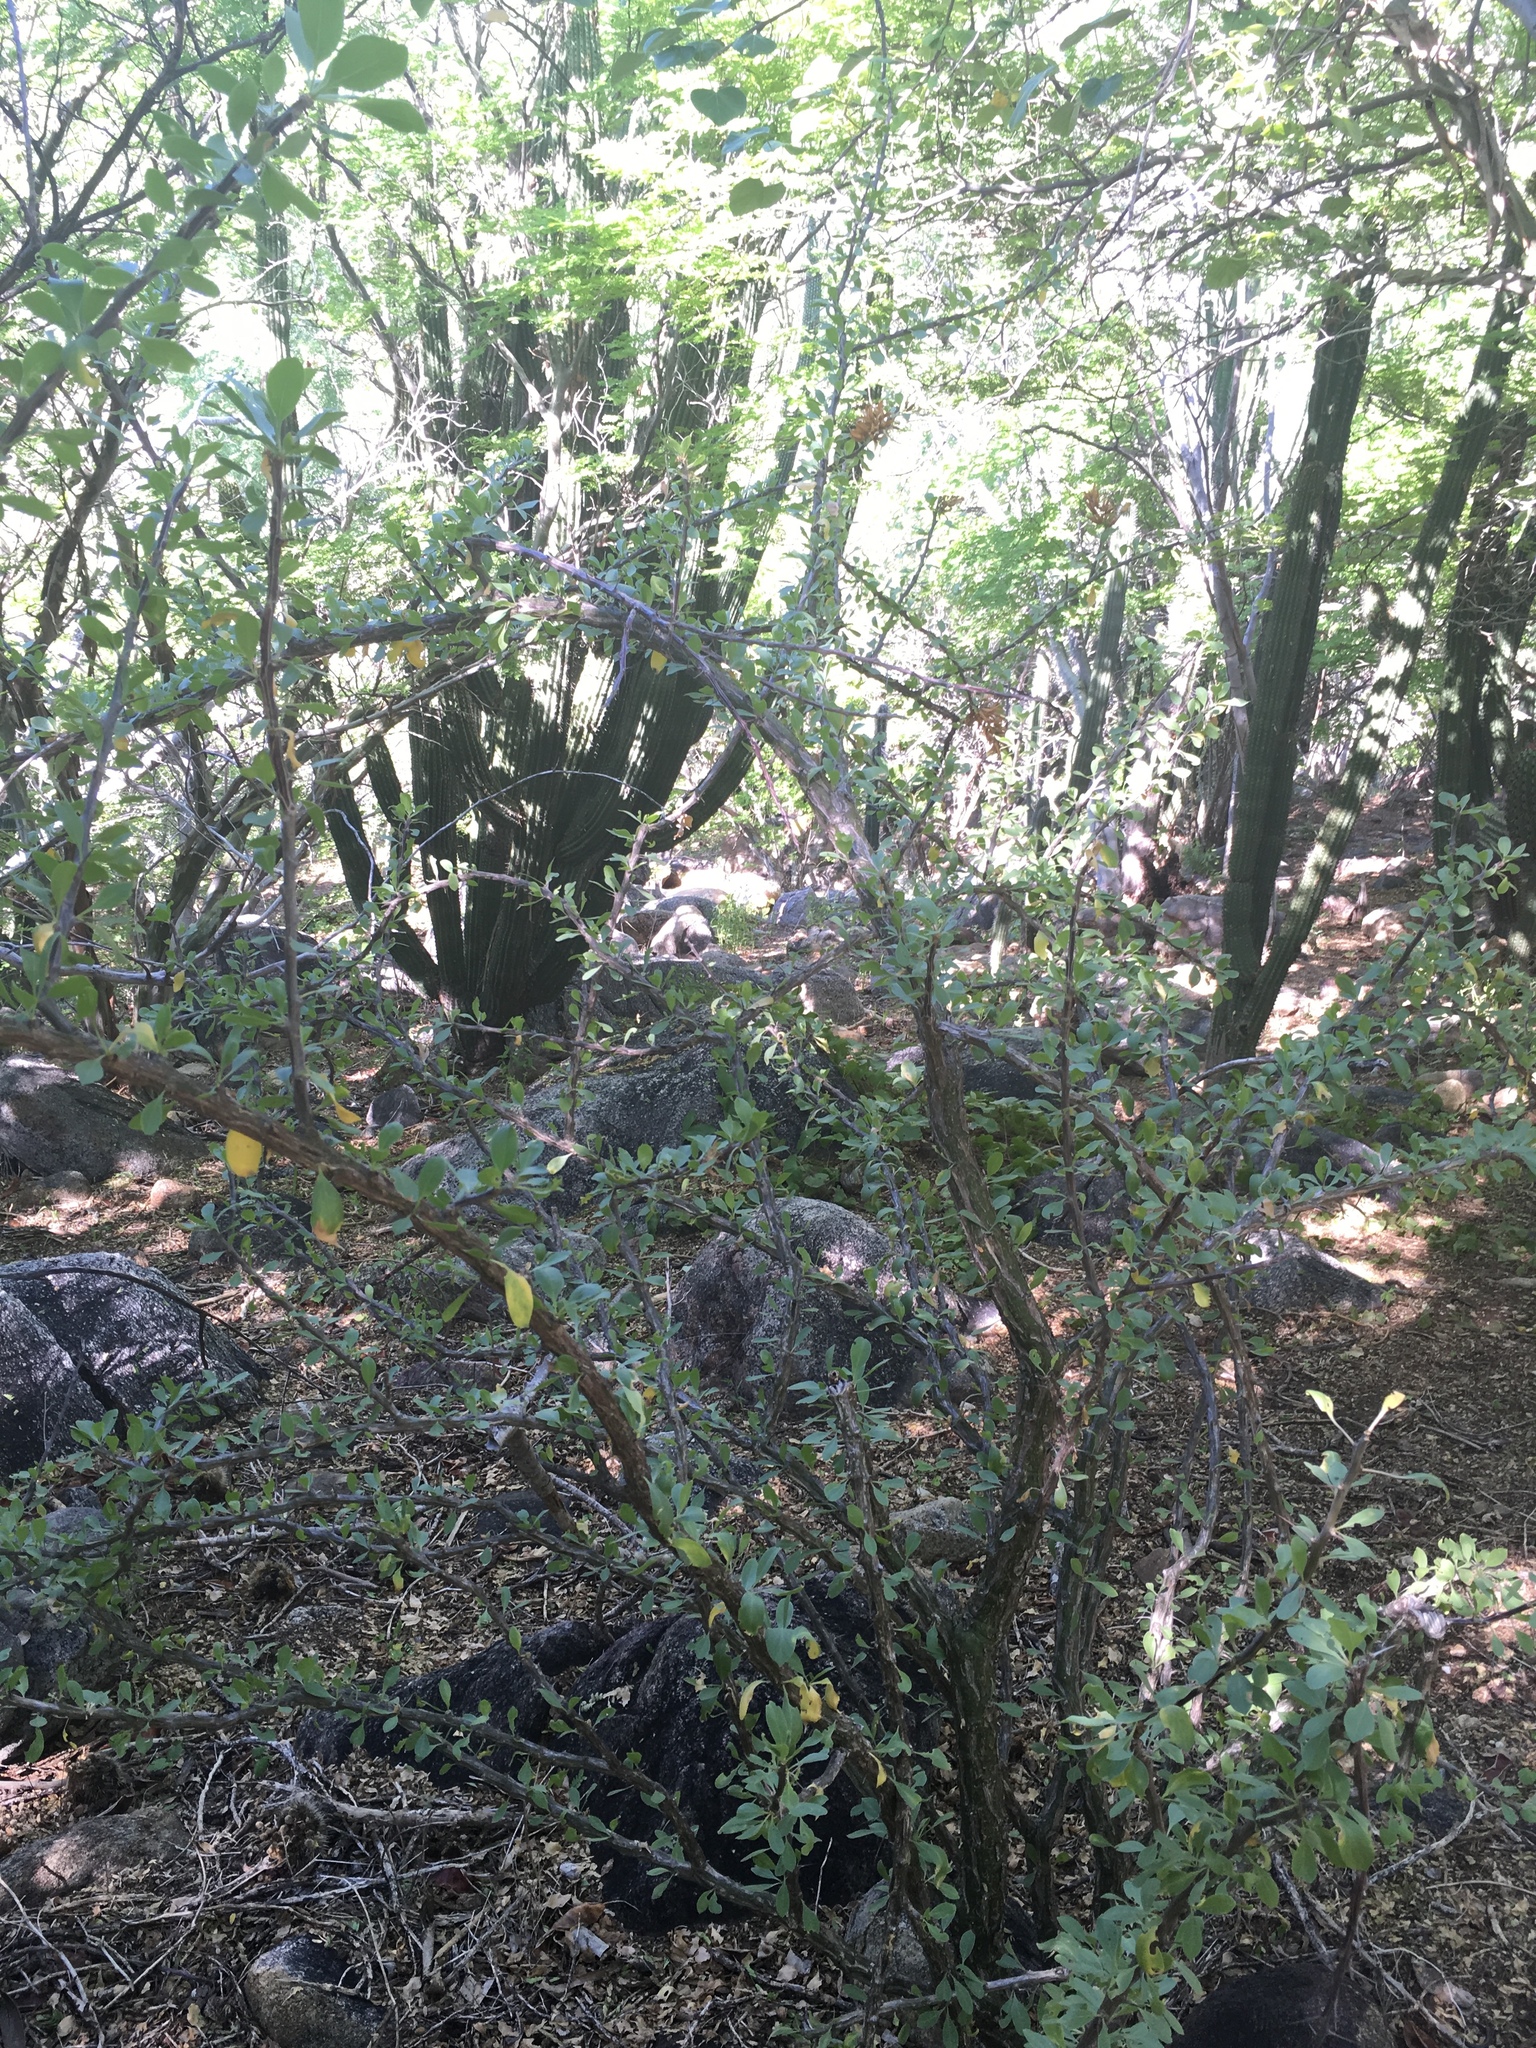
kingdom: Plantae
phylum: Tracheophyta
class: Magnoliopsida
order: Ericales
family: Fouquieriaceae
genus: Fouquieria
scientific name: Fouquieria diguetii
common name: Adam's tree
